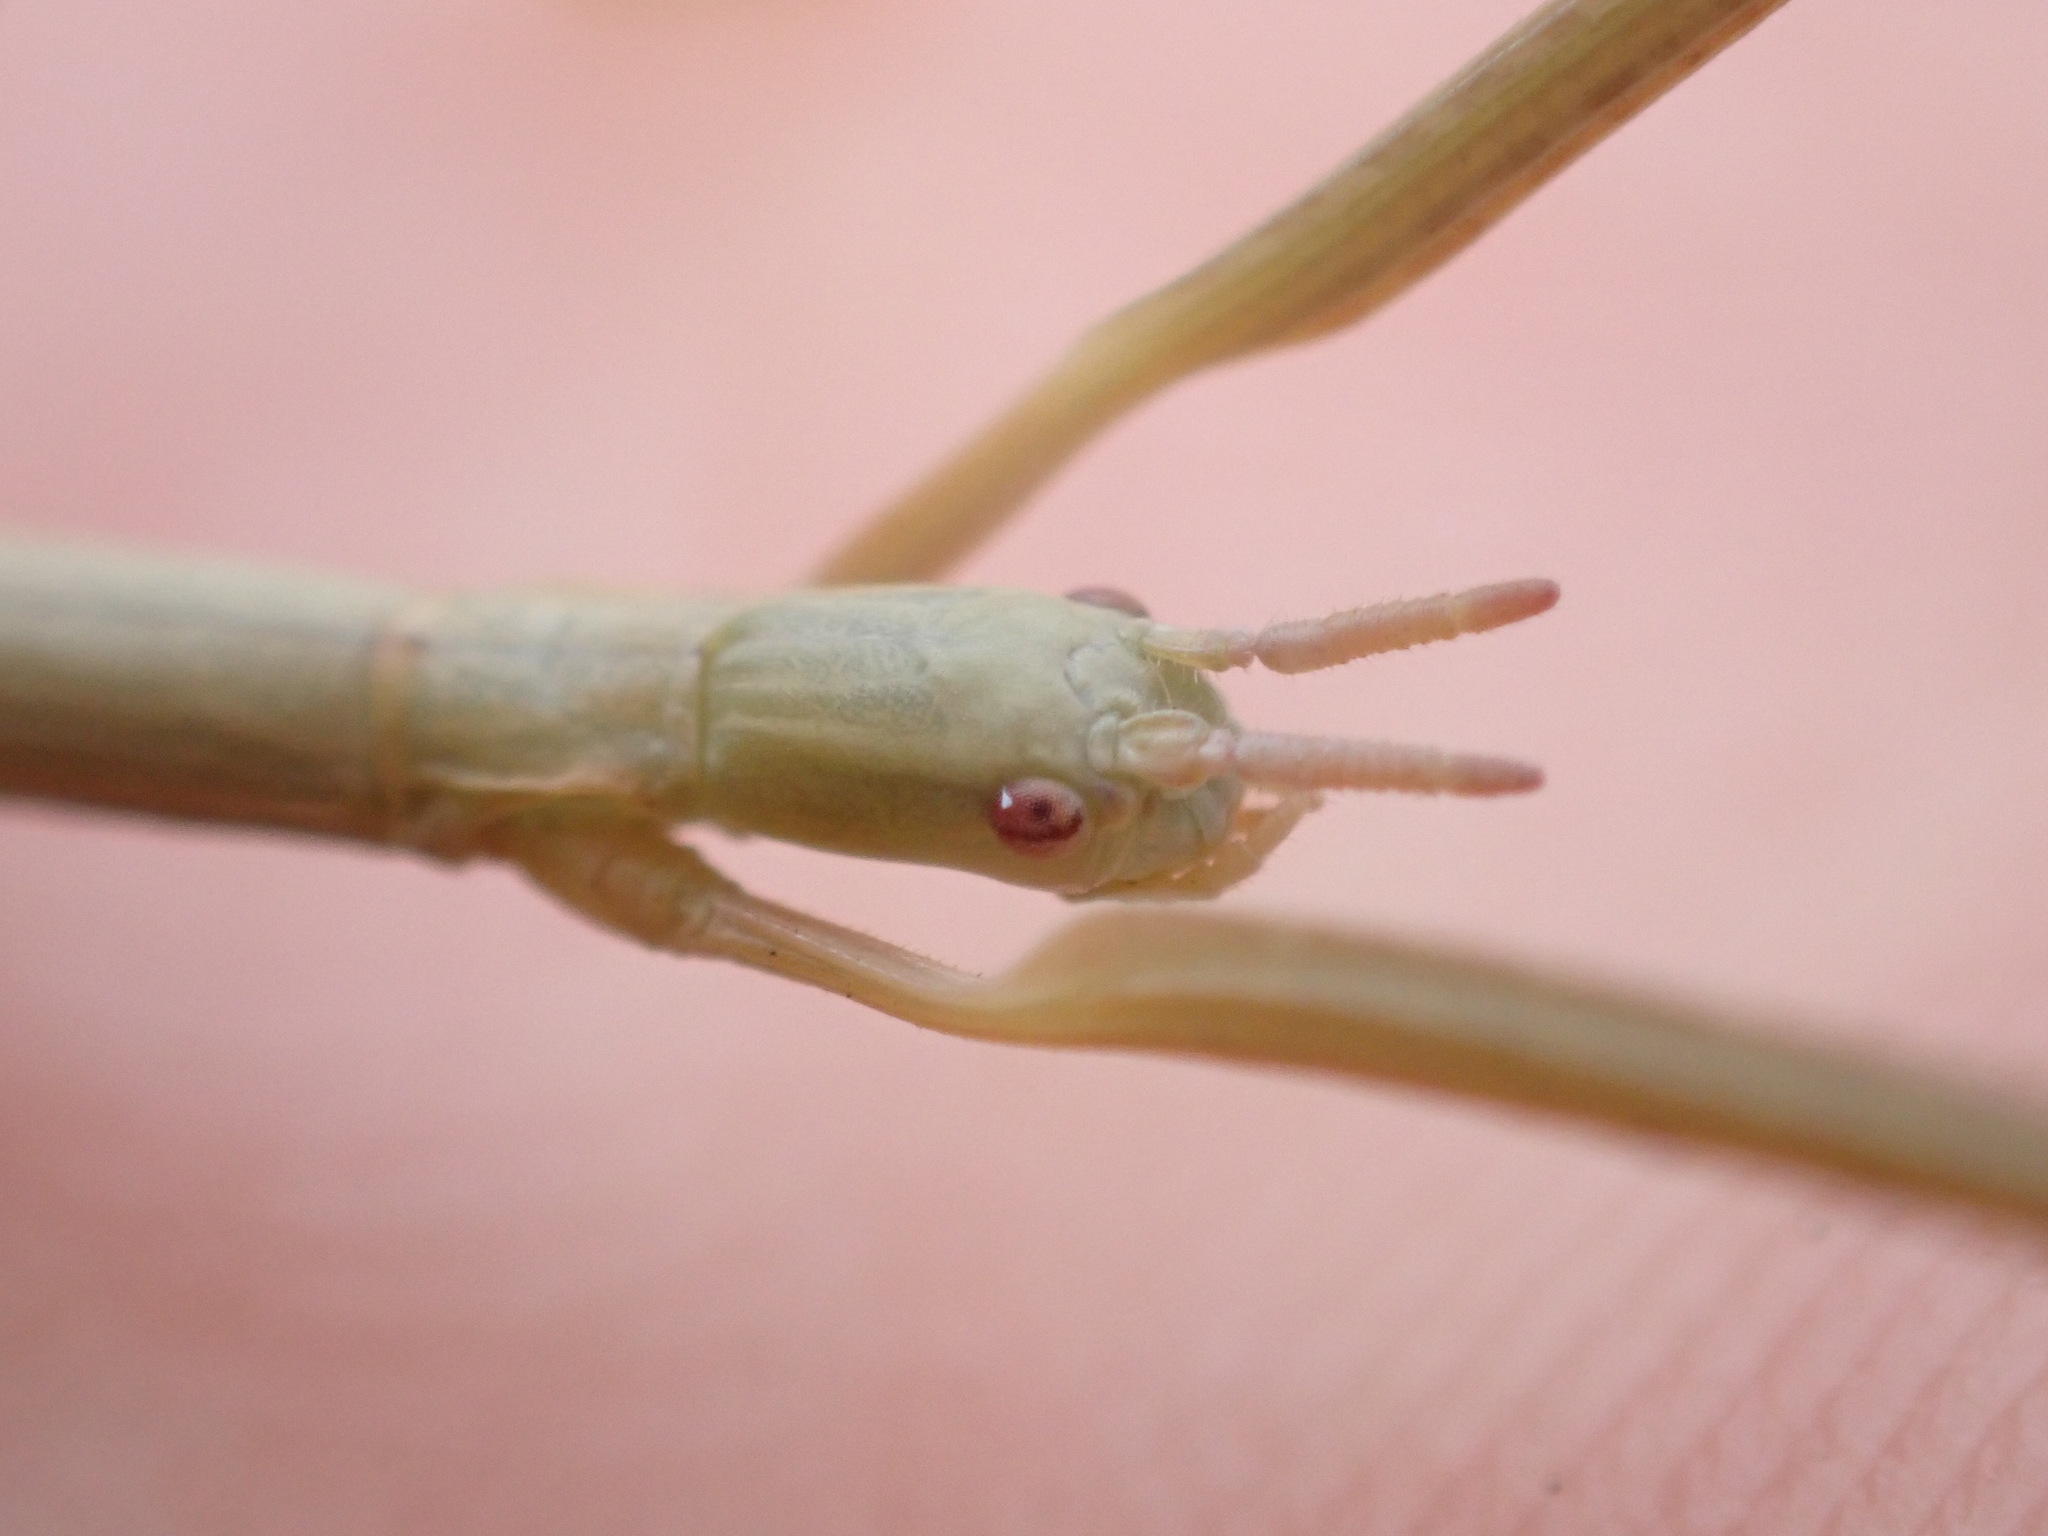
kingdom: Animalia
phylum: Arthropoda
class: Insecta
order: Phasmida
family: Bacillidae
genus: Clonopsis
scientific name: Clonopsis gallica
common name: French stick insect
